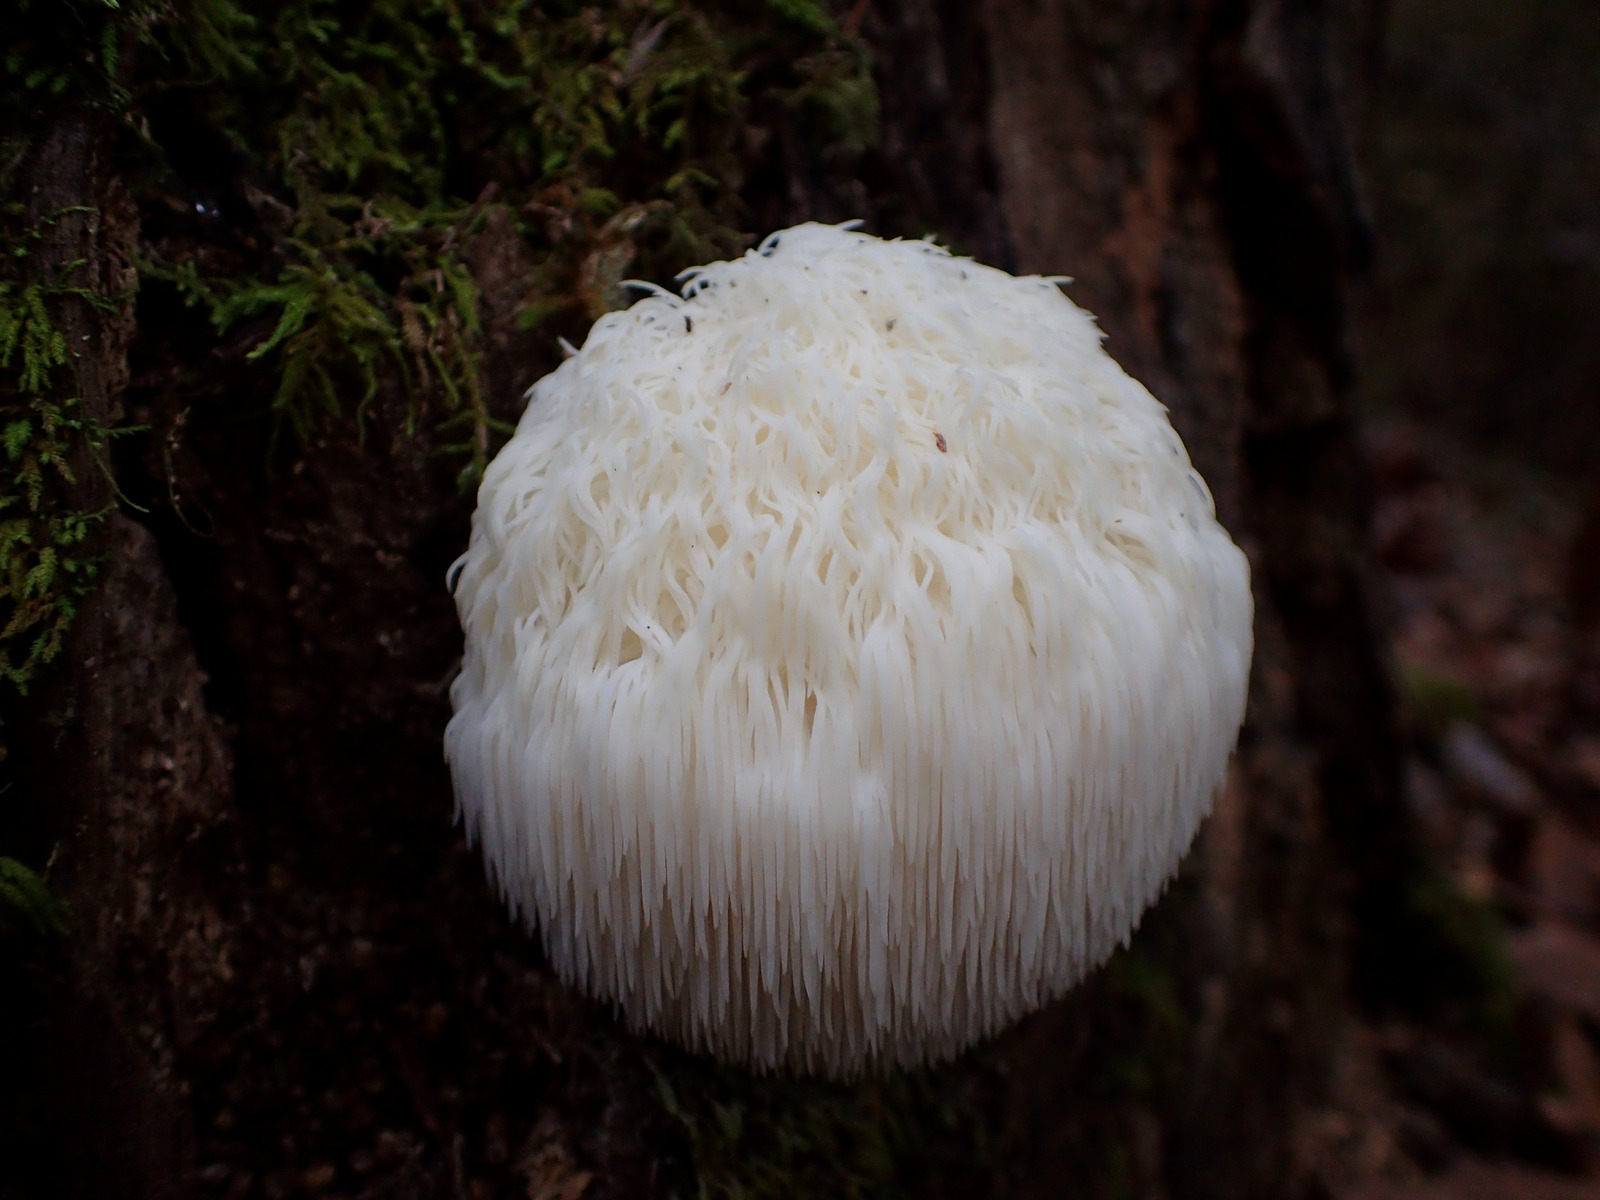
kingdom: Fungi
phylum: Basidiomycota
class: Agaricomycetes
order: Russulales
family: Hericiaceae
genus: Hericium
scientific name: Hericium erinaceus
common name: Bearded tooth
